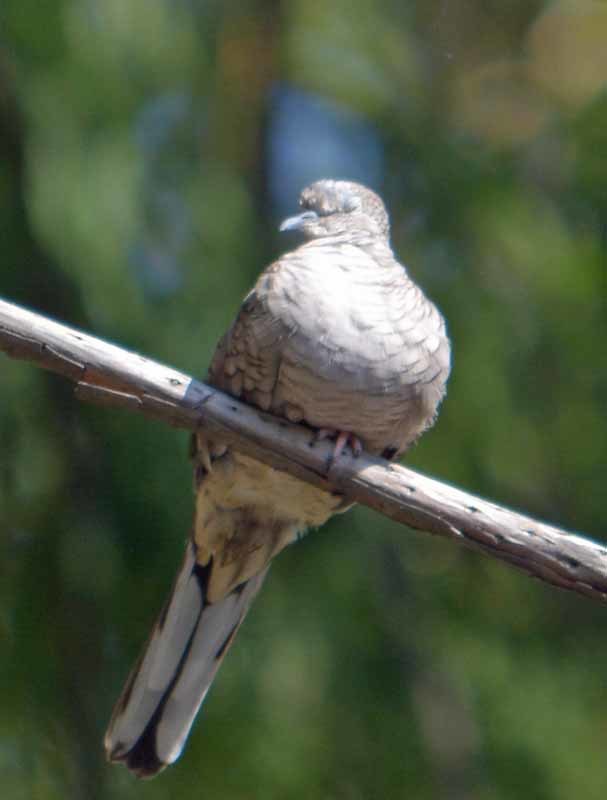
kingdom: Animalia
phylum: Chordata
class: Aves
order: Columbiformes
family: Columbidae
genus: Columbina
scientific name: Columbina inca
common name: Inca dove
